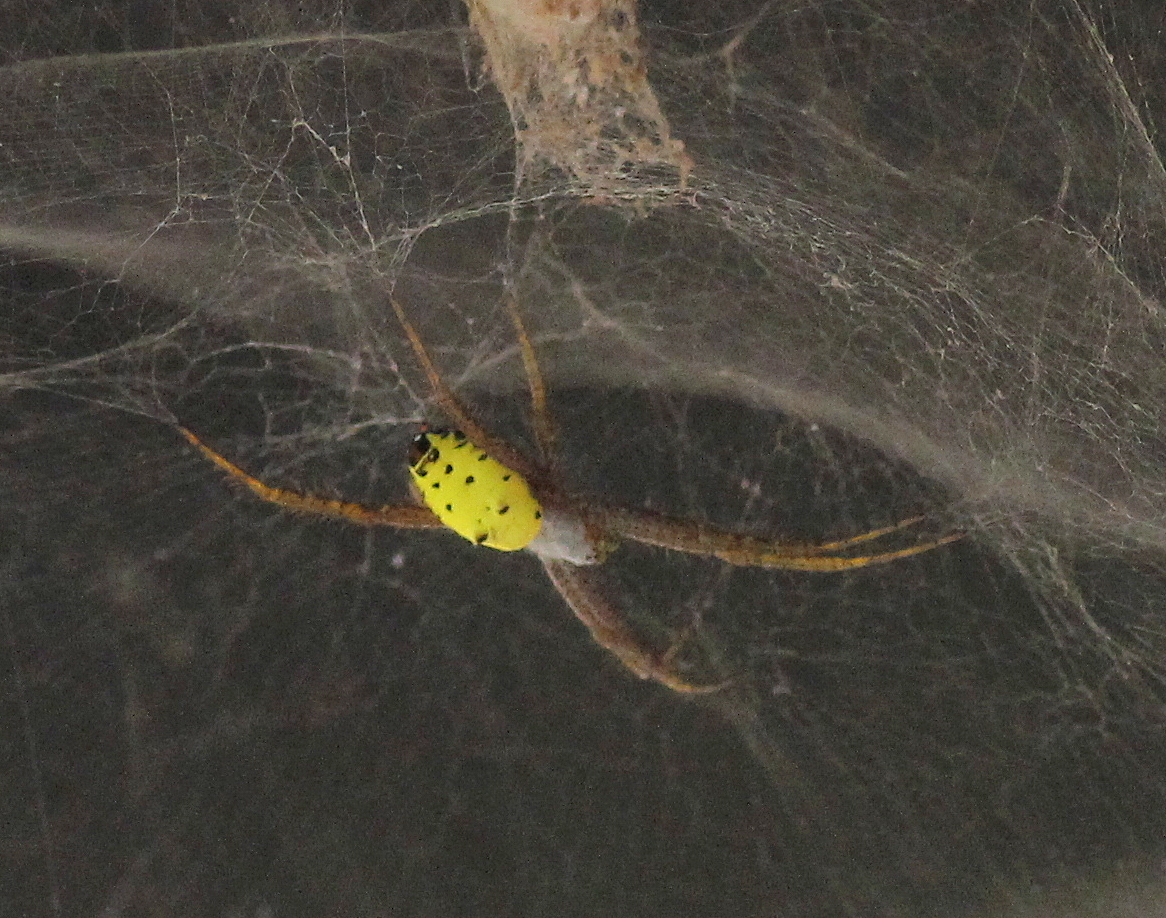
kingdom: Animalia
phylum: Arthropoda
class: Arachnida
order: Araneae
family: Araneidae
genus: Cyrtophora
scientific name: Cyrtophora cylindroides
